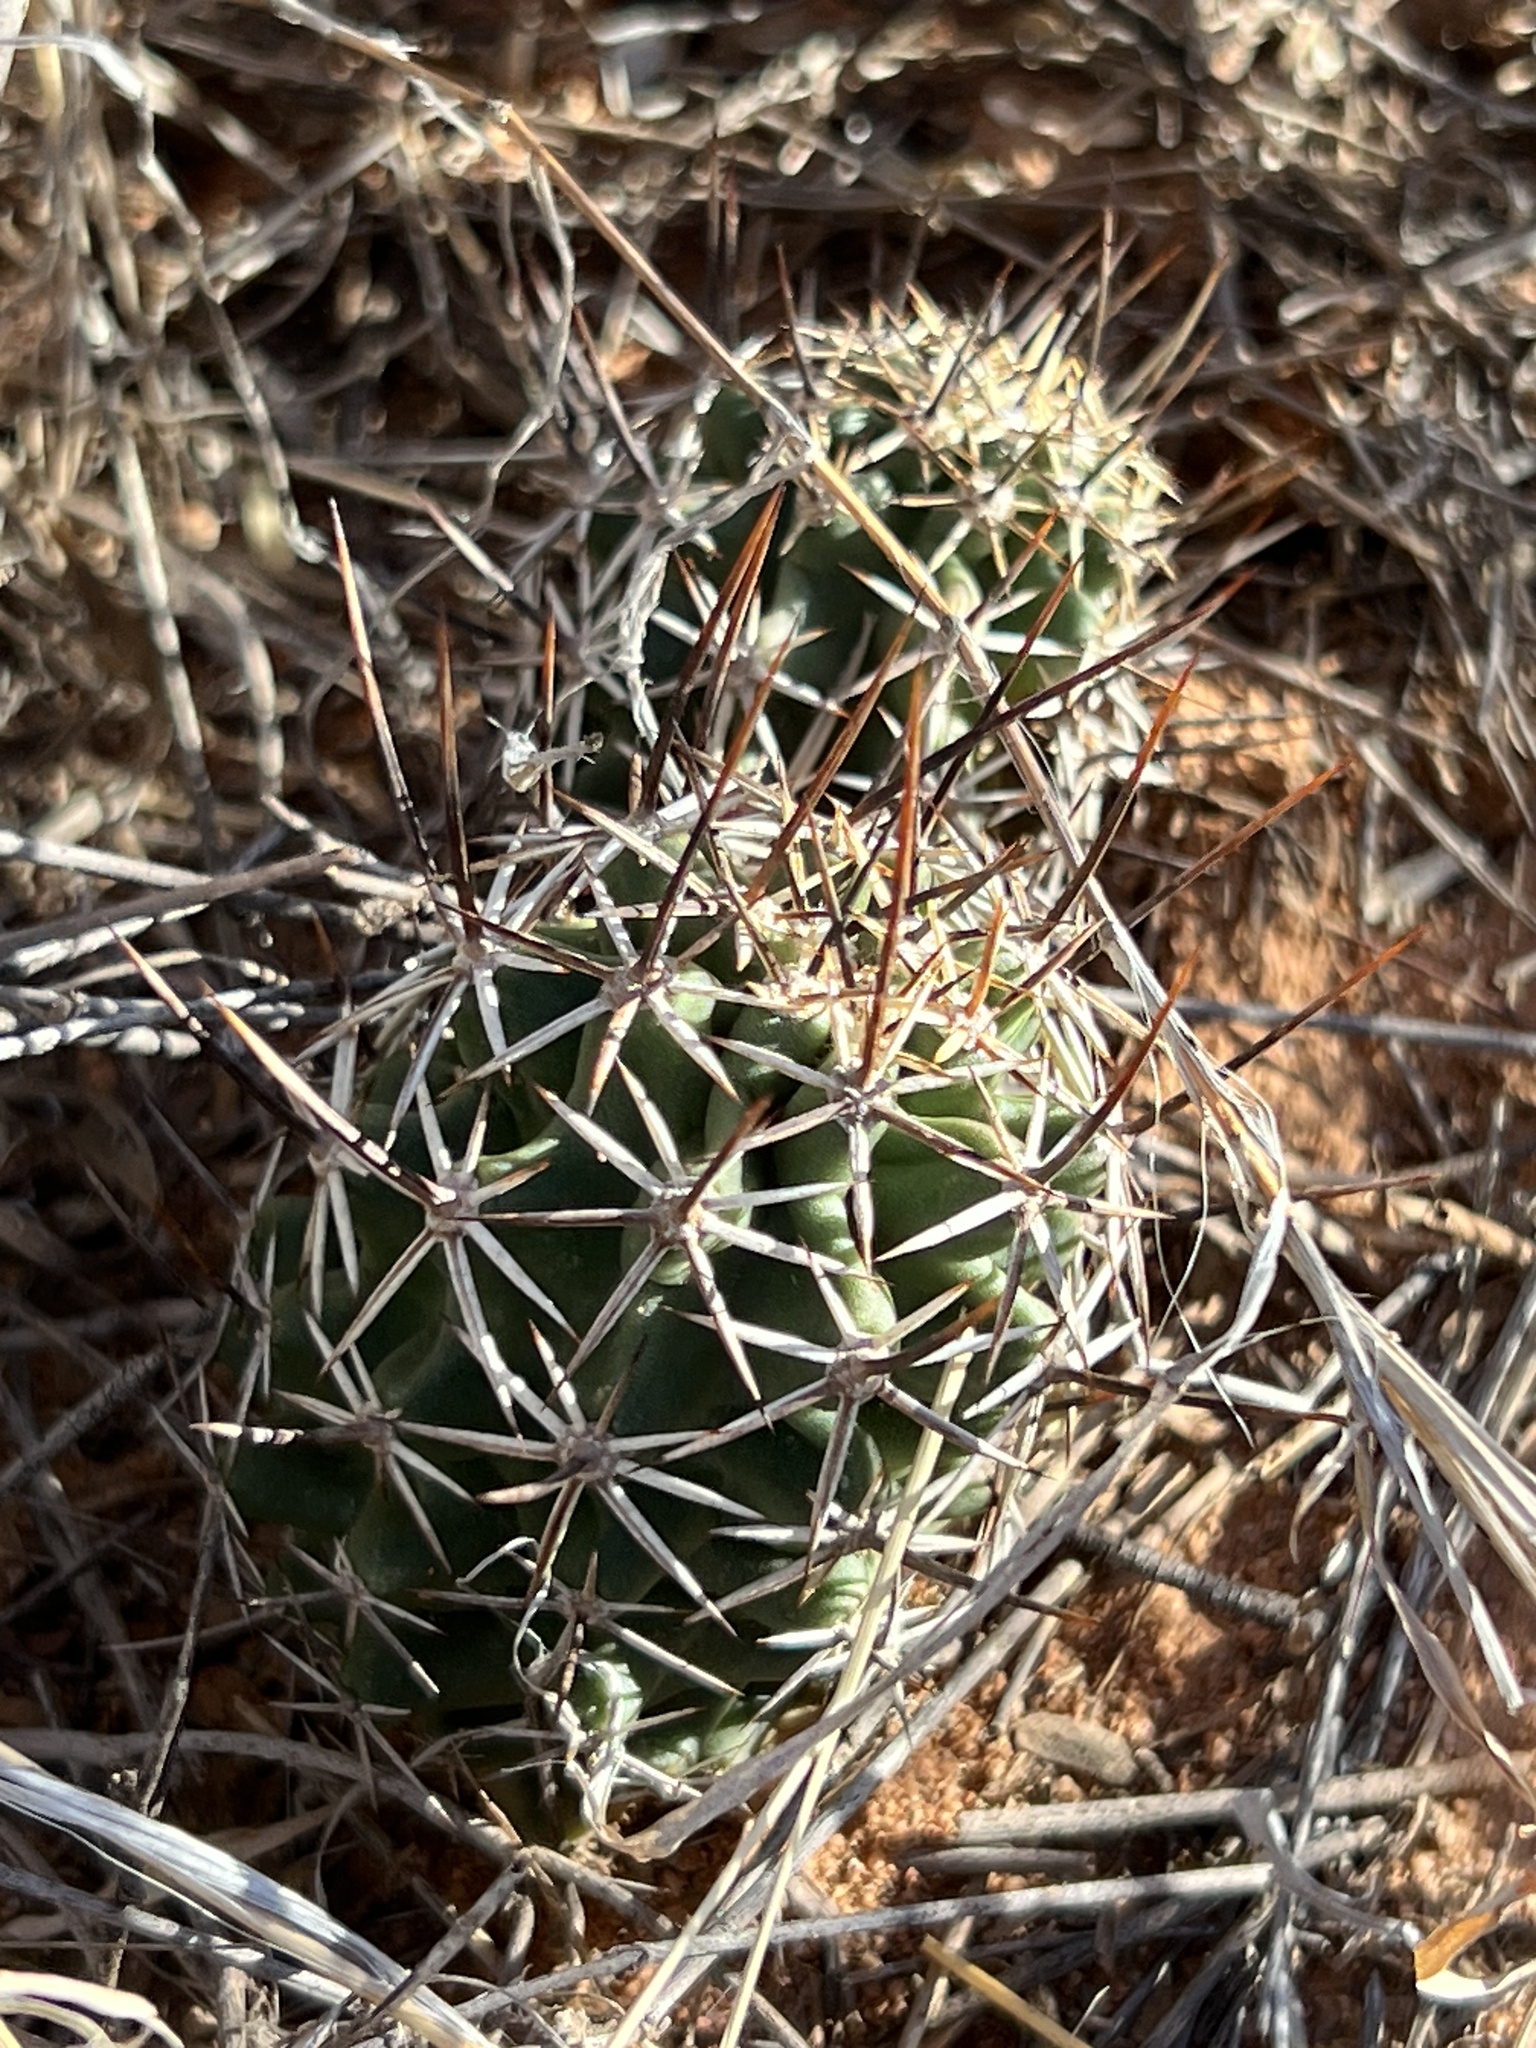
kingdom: Plantae
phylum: Tracheophyta
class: Magnoliopsida
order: Caryophyllales
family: Cactaceae
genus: Echinocereus
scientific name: Echinocereus fendleri
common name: Fendler's hedgehog cactus
